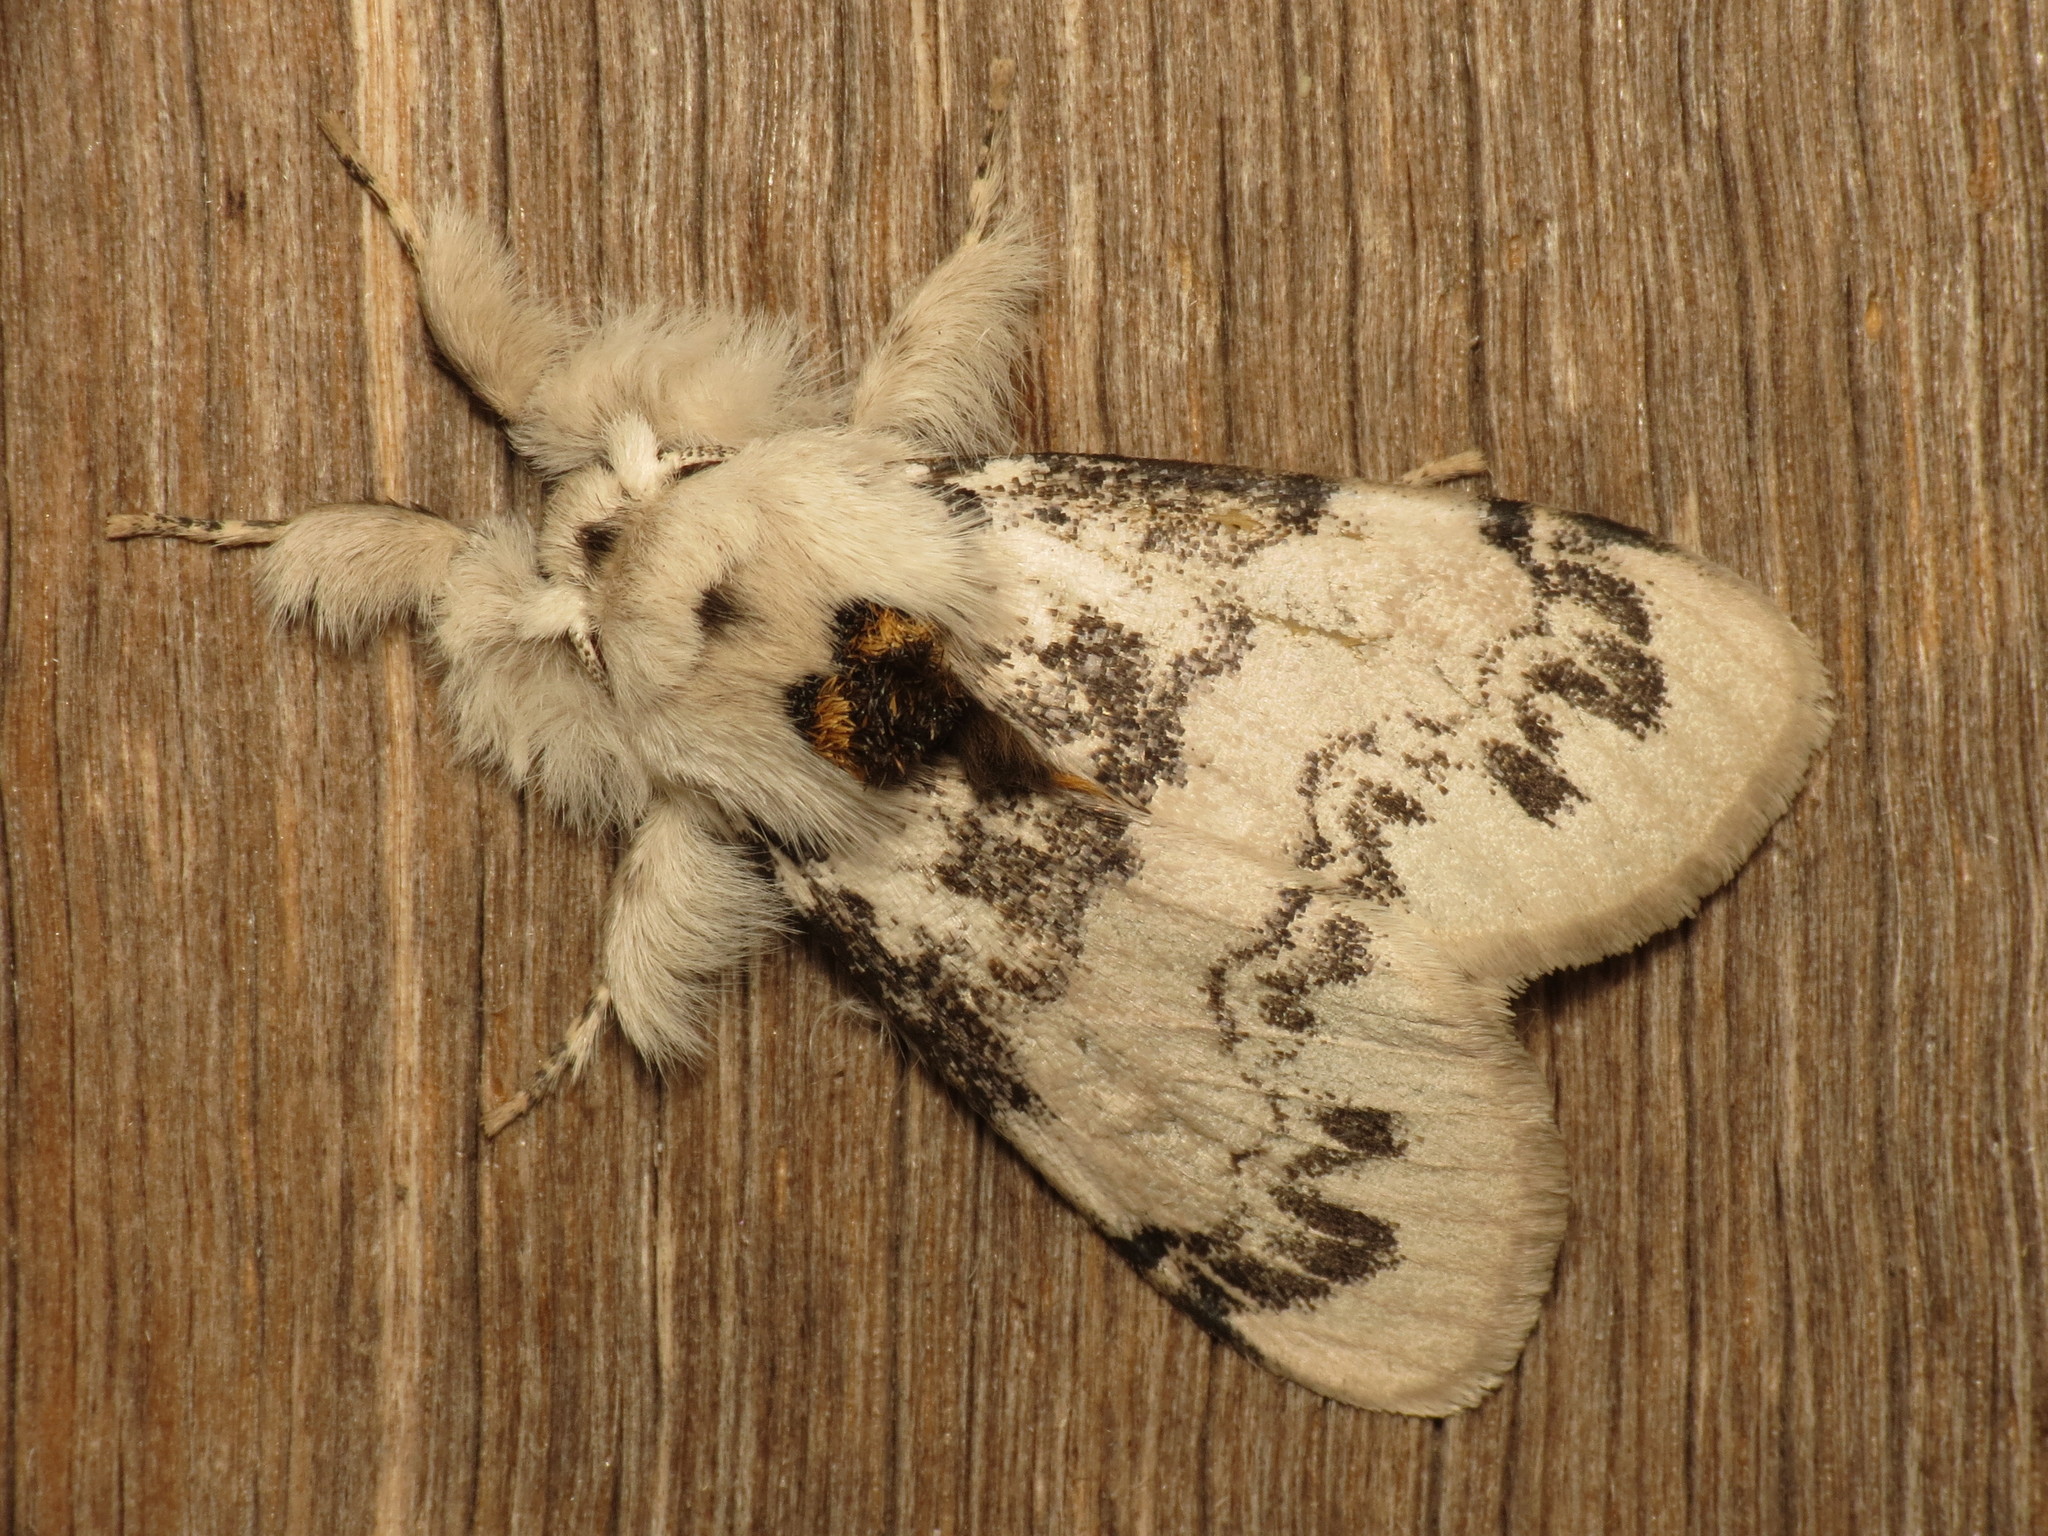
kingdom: Animalia
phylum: Arthropoda
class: Insecta
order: Lepidoptera
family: Erebidae
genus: Iropoca
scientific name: Iropoca rotundata
